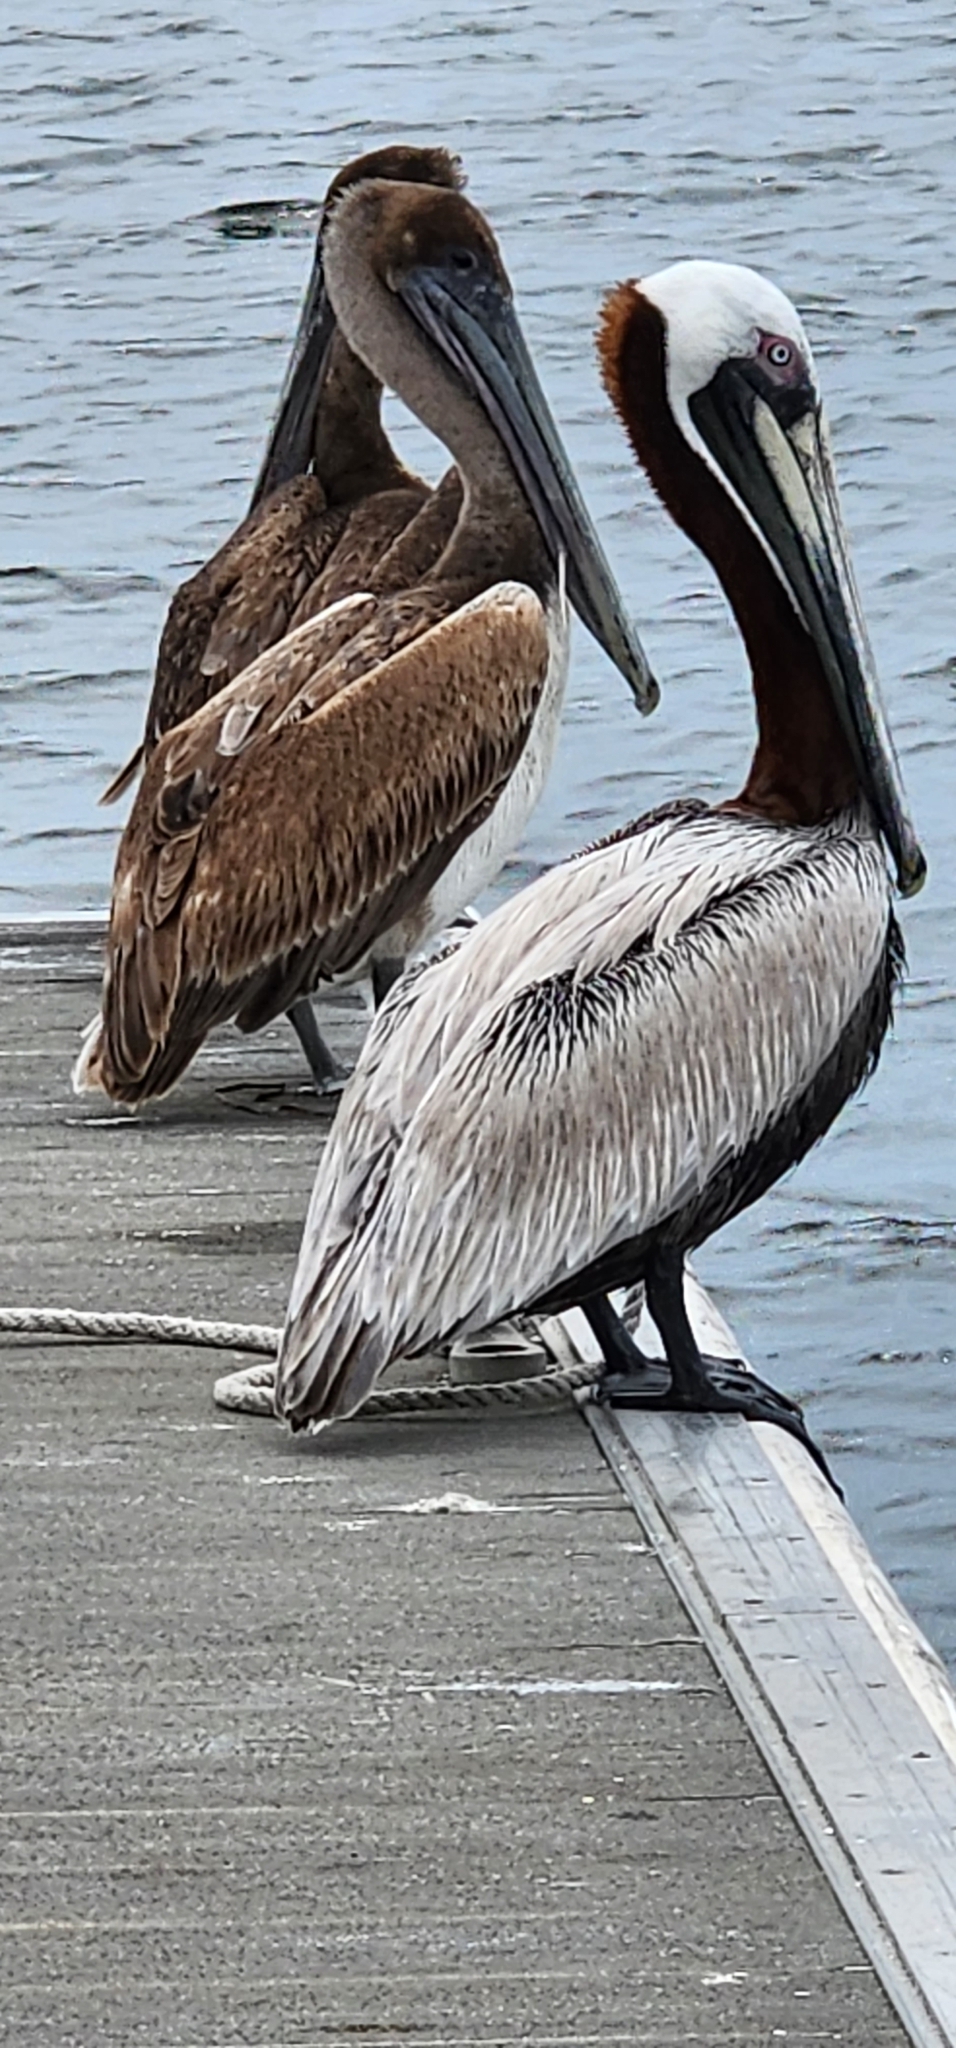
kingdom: Animalia
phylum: Chordata
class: Aves
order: Pelecaniformes
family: Pelecanidae
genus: Pelecanus
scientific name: Pelecanus occidentalis
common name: Brown pelican
